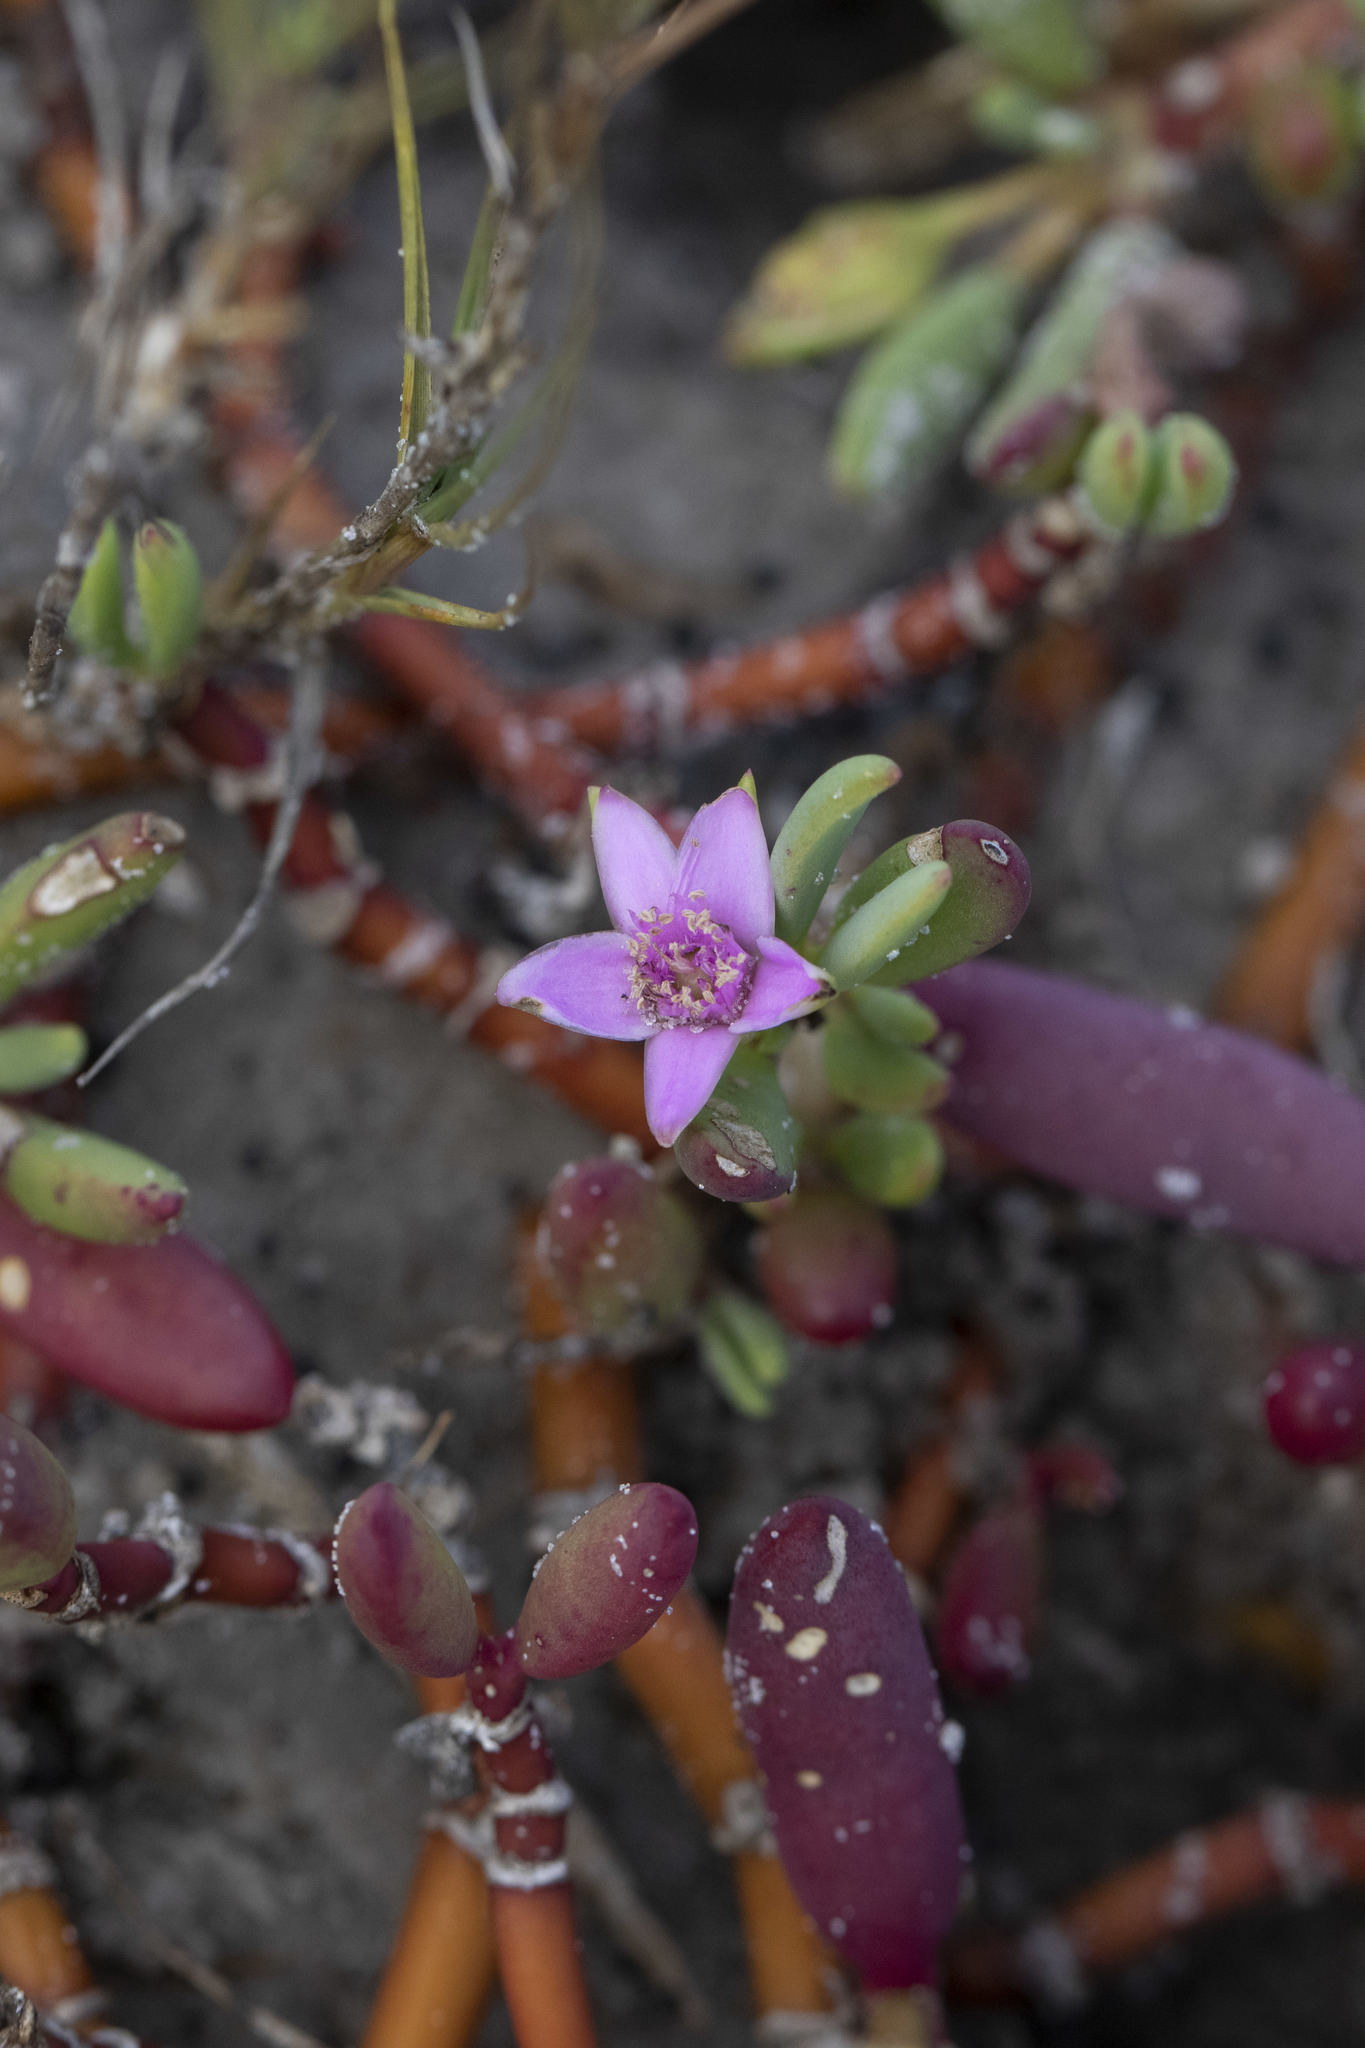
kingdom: Plantae
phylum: Tracheophyta
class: Magnoliopsida
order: Caryophyllales
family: Aizoaceae
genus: Sesuvium
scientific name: Sesuvium portulacastrum
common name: Sea-purslane
